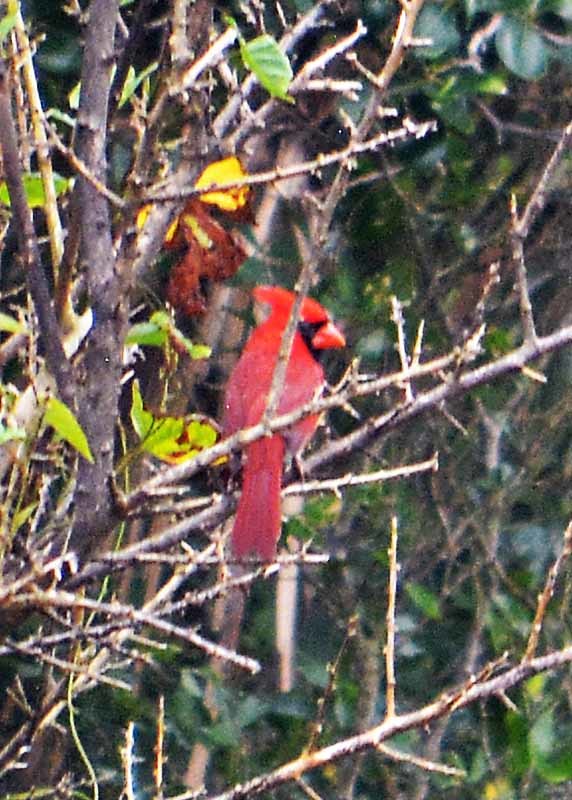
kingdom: Animalia
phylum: Chordata
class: Aves
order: Passeriformes
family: Cardinalidae
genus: Cardinalis
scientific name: Cardinalis cardinalis
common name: Northern cardinal
